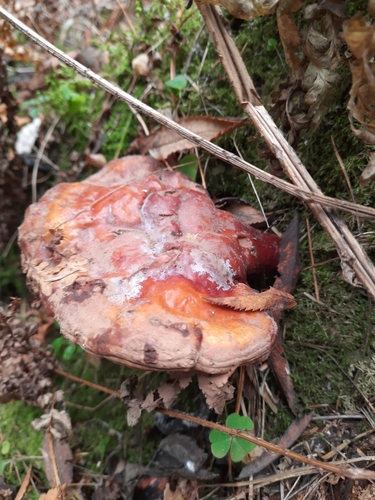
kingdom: Fungi
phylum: Basidiomycota
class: Agaricomycetes
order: Polyporales
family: Polyporaceae
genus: Ganoderma
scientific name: Ganoderma lucidum
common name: Lacquered bracket
